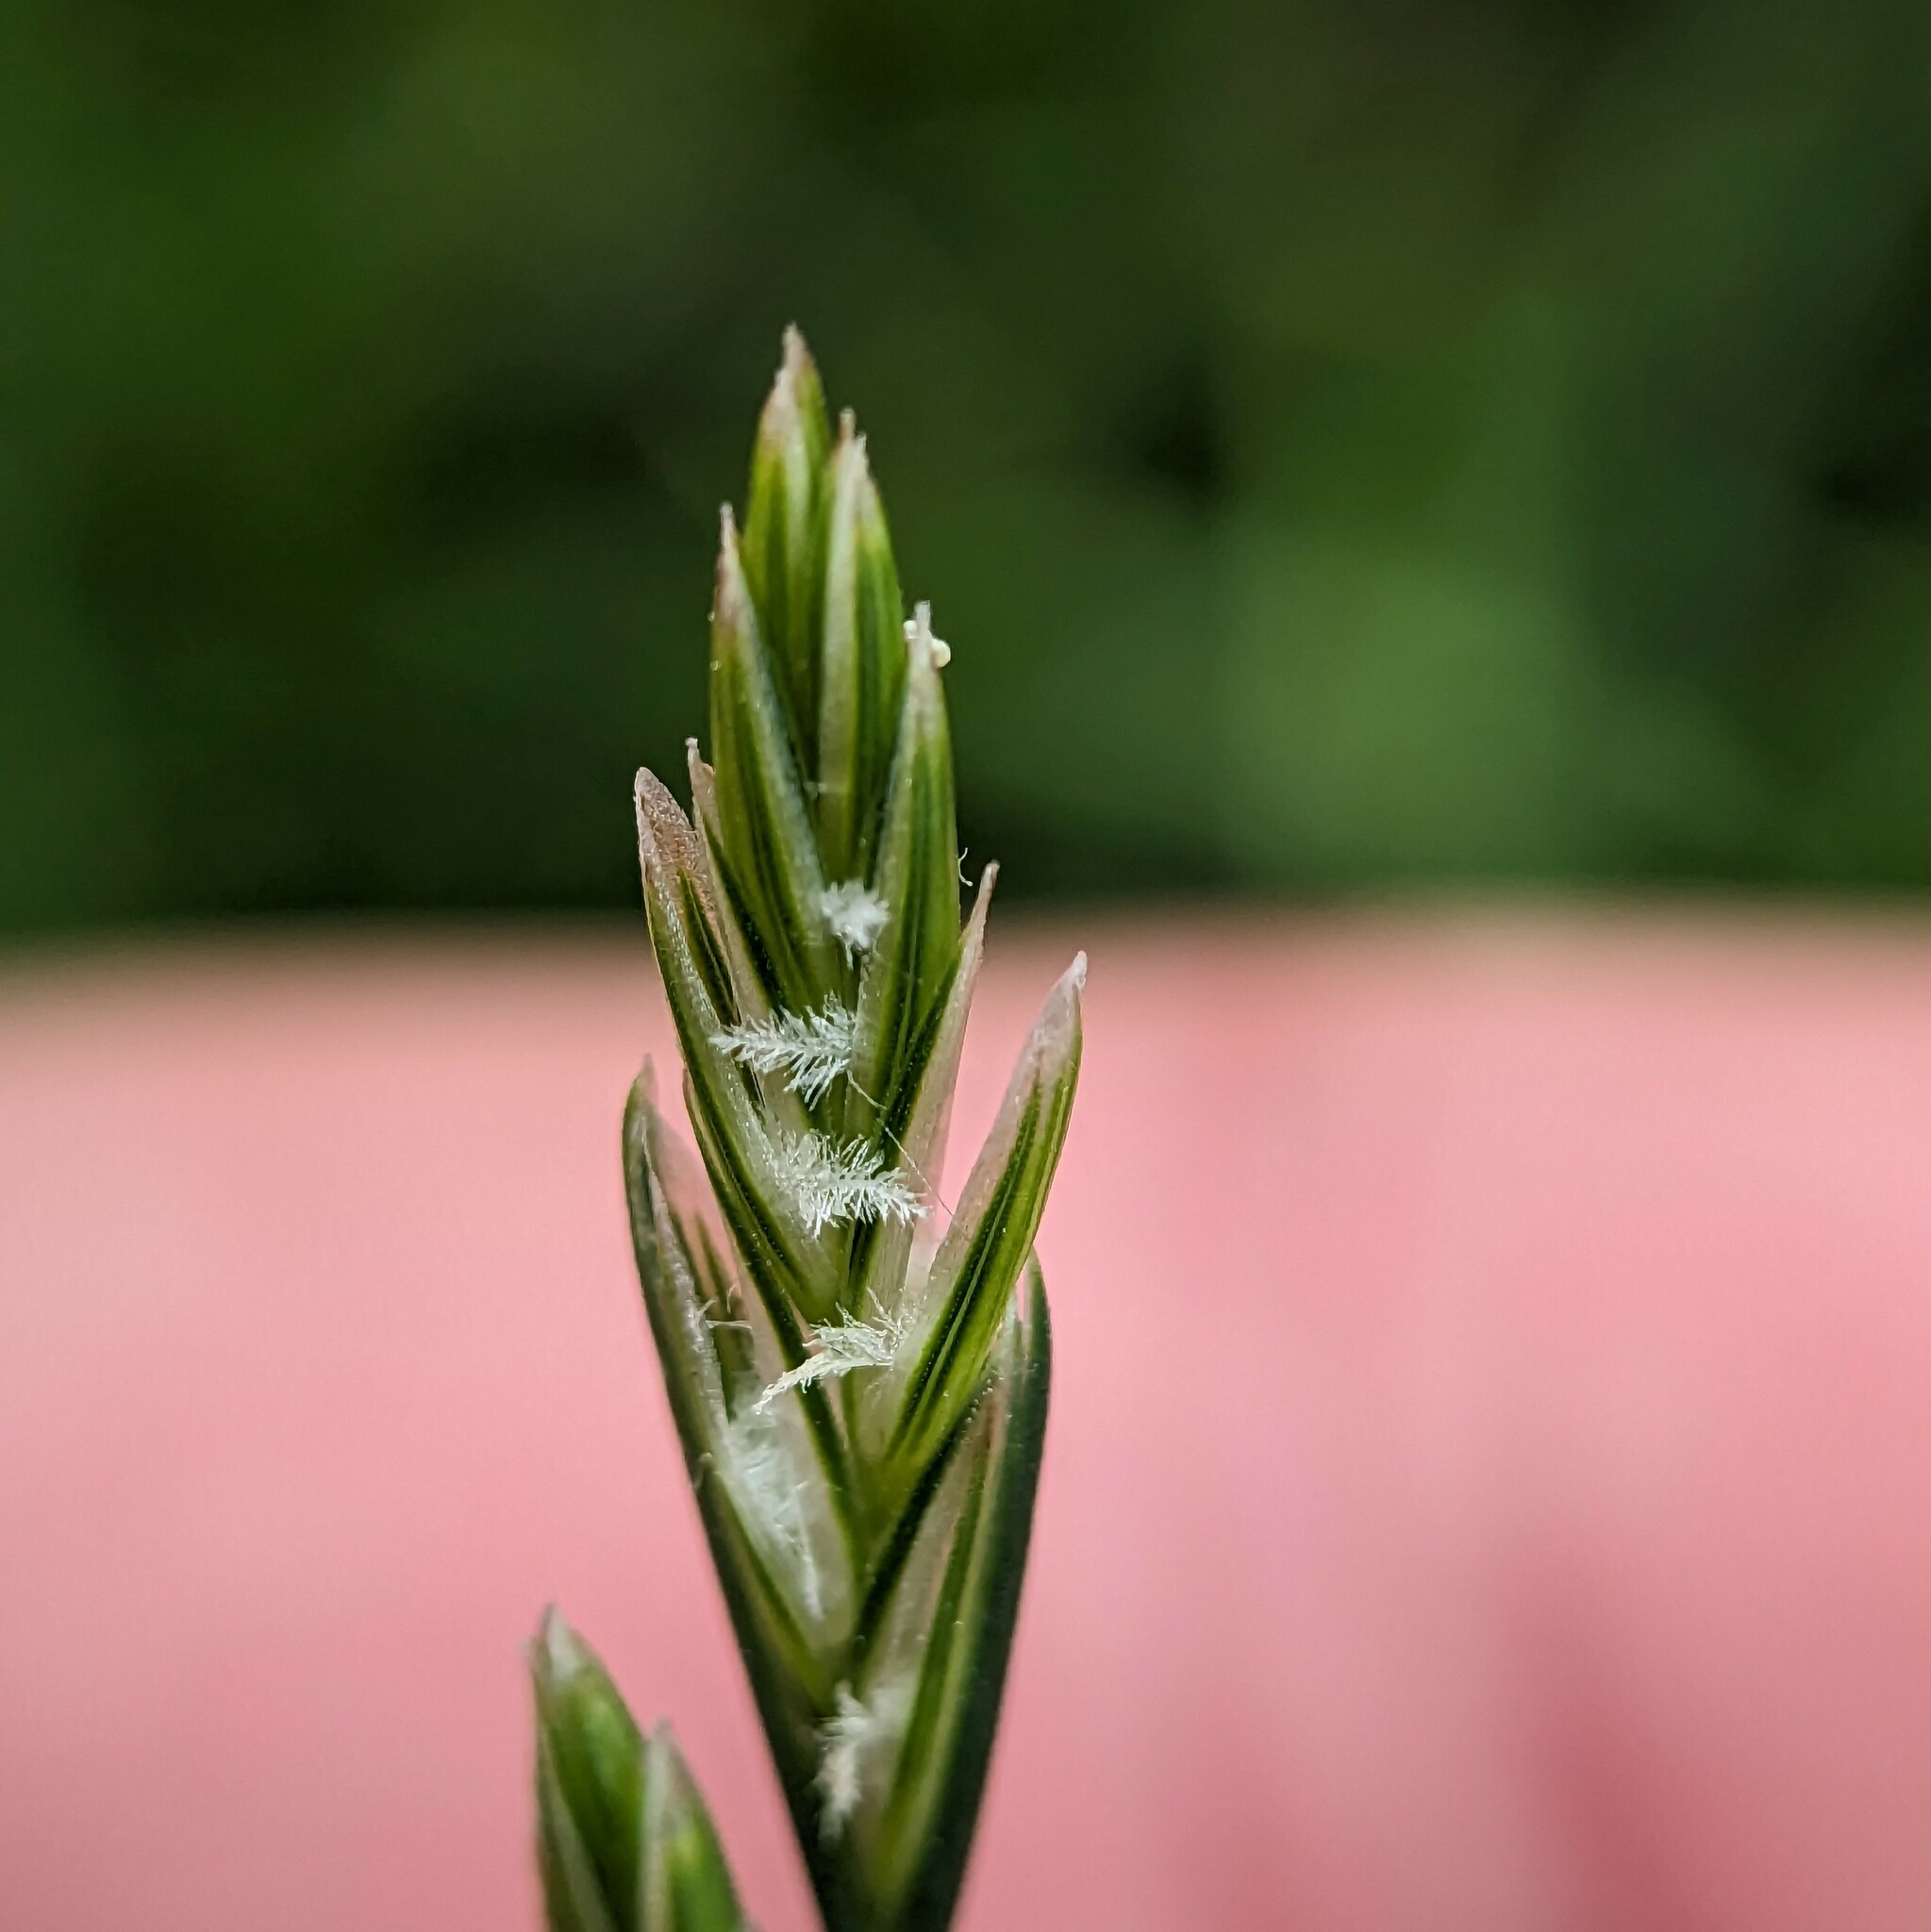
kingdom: Plantae
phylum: Tracheophyta
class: Liliopsida
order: Poales
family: Poaceae
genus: Lolium
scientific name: Lolium perenne
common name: Perennial ryegrass
